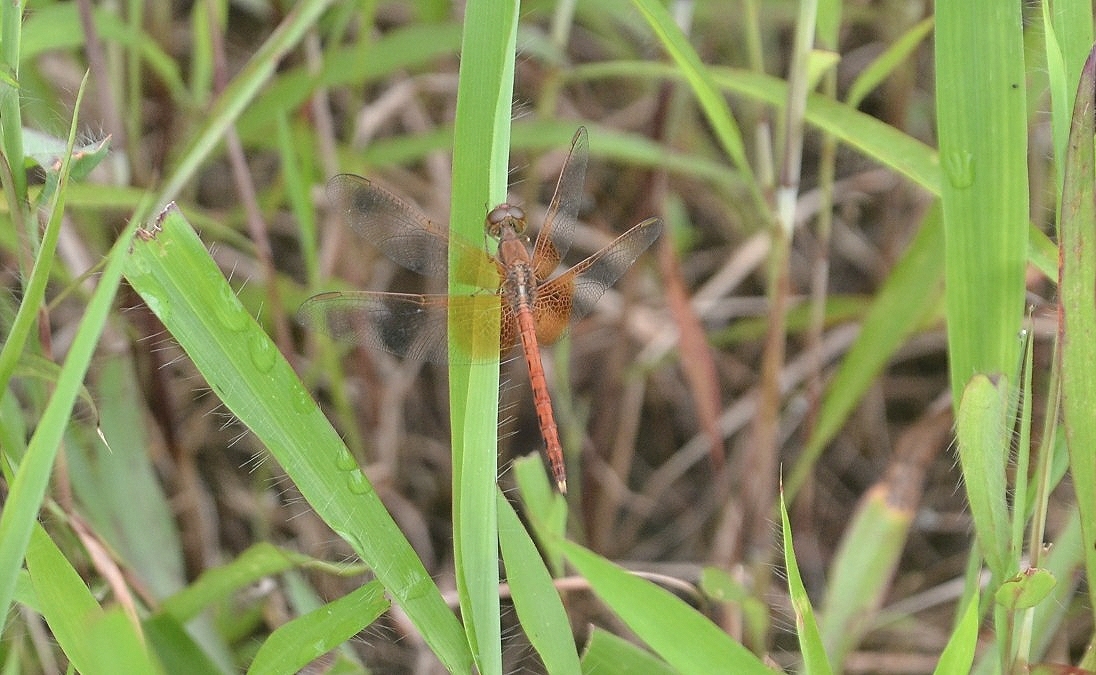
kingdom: Animalia
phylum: Arthropoda
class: Insecta
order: Odonata
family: Libellulidae
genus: Neurothemis
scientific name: Neurothemis intermedia
